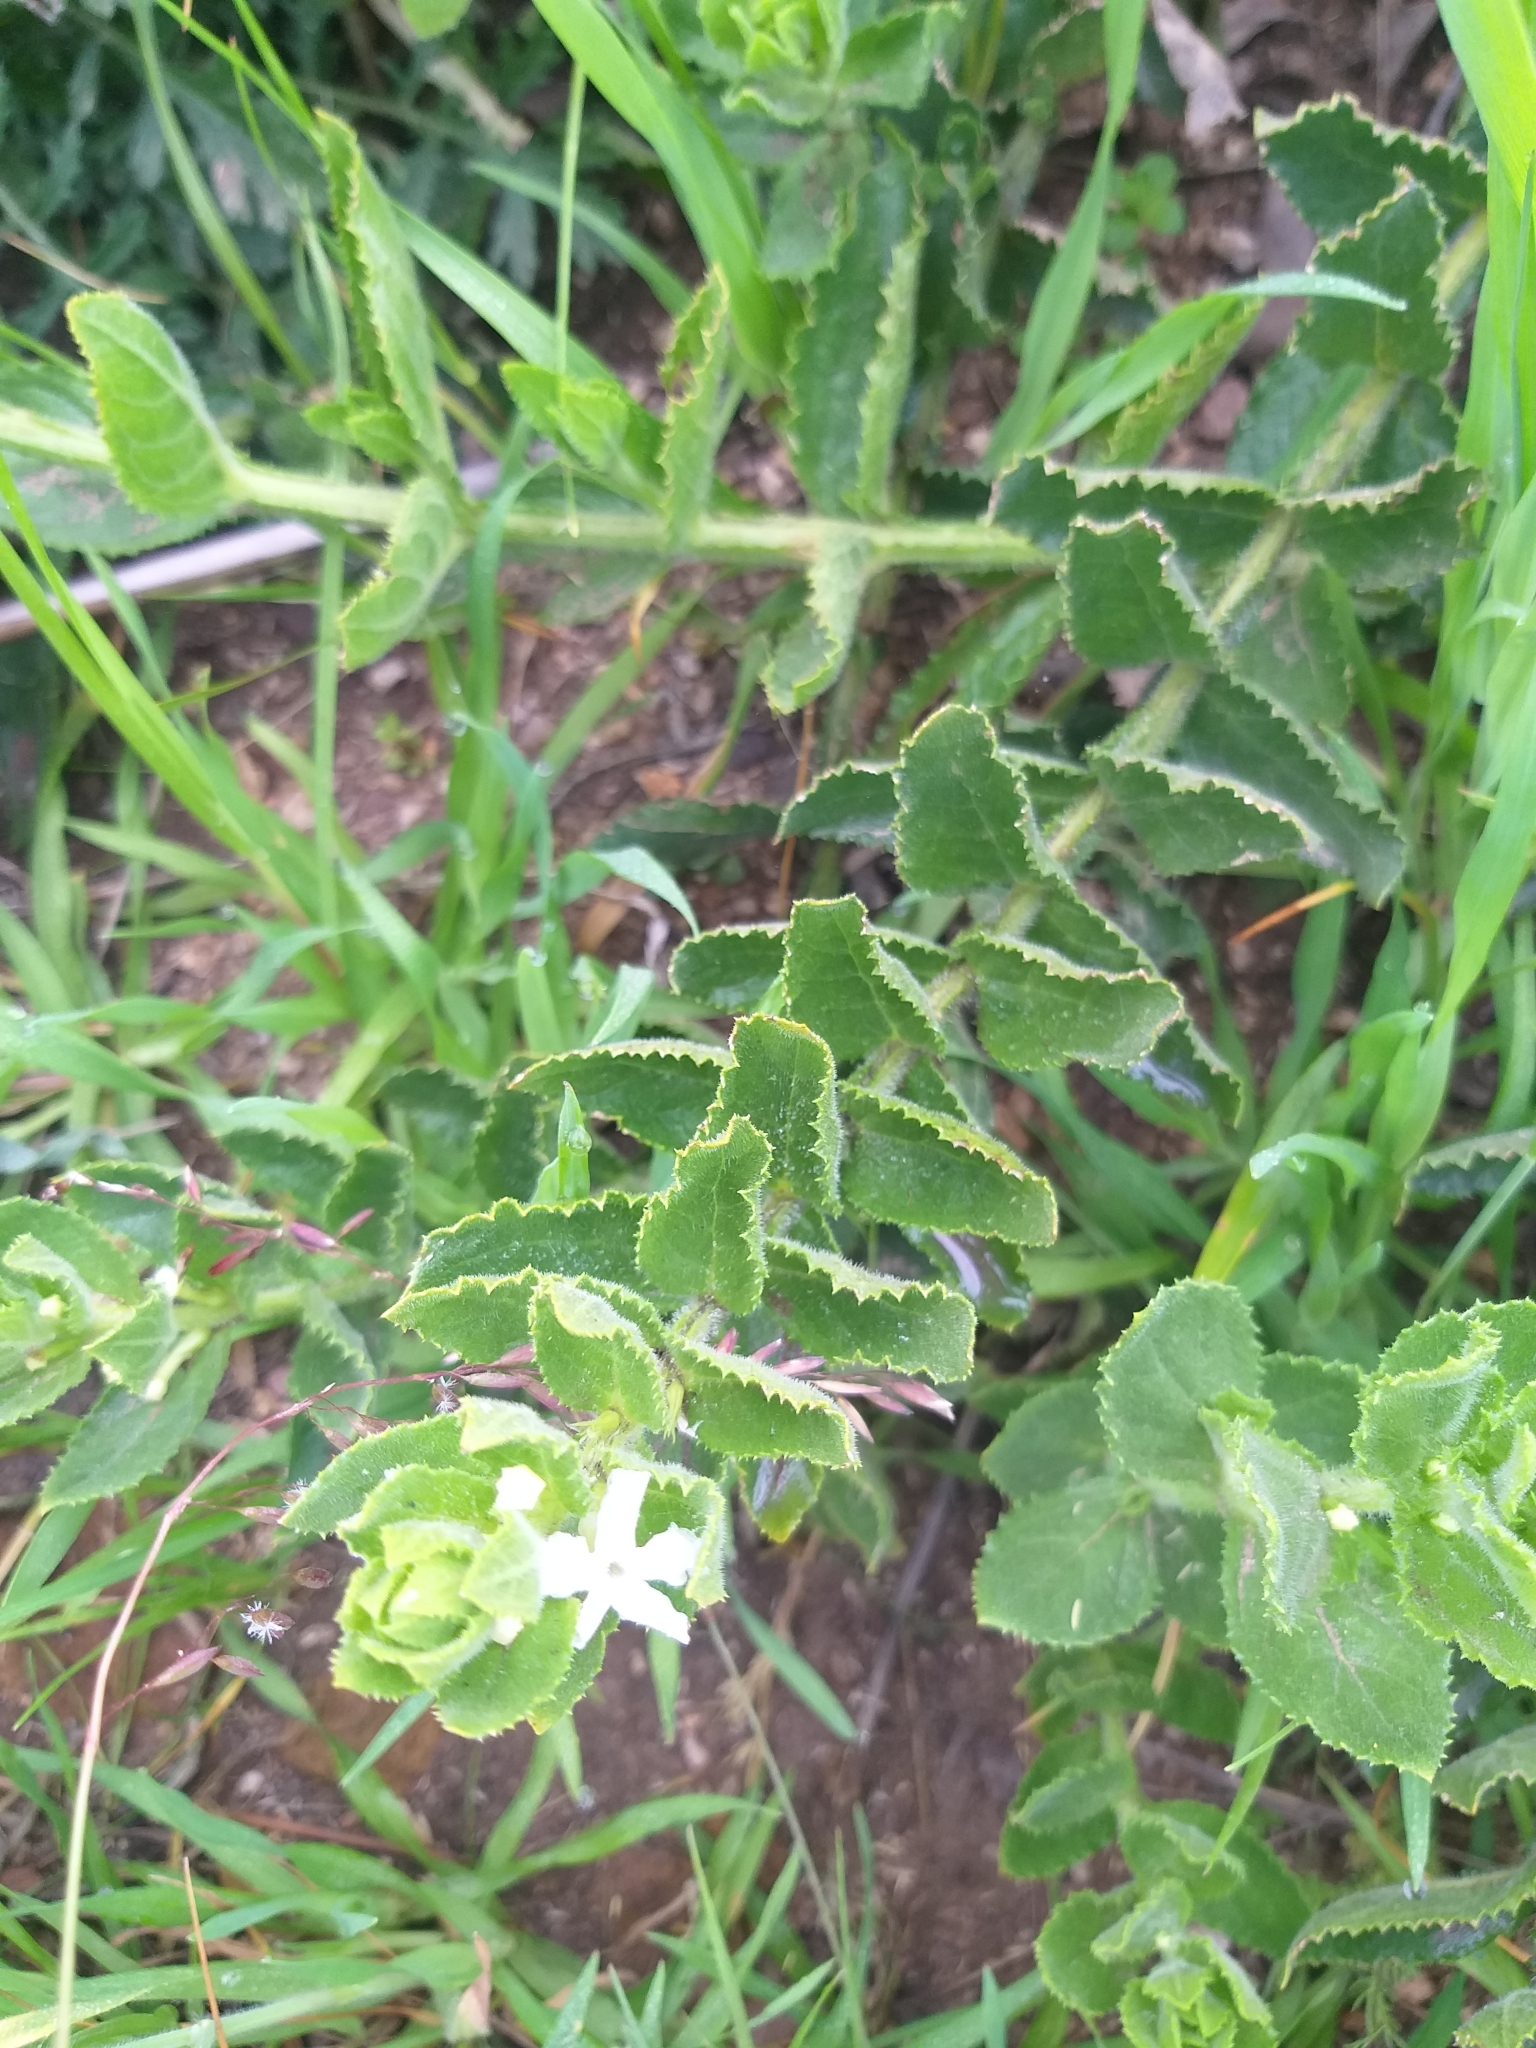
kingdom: Plantae
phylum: Tracheophyta
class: Magnoliopsida
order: Lamiales
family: Scrophulariaceae
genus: Oftia
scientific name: Oftia africana
